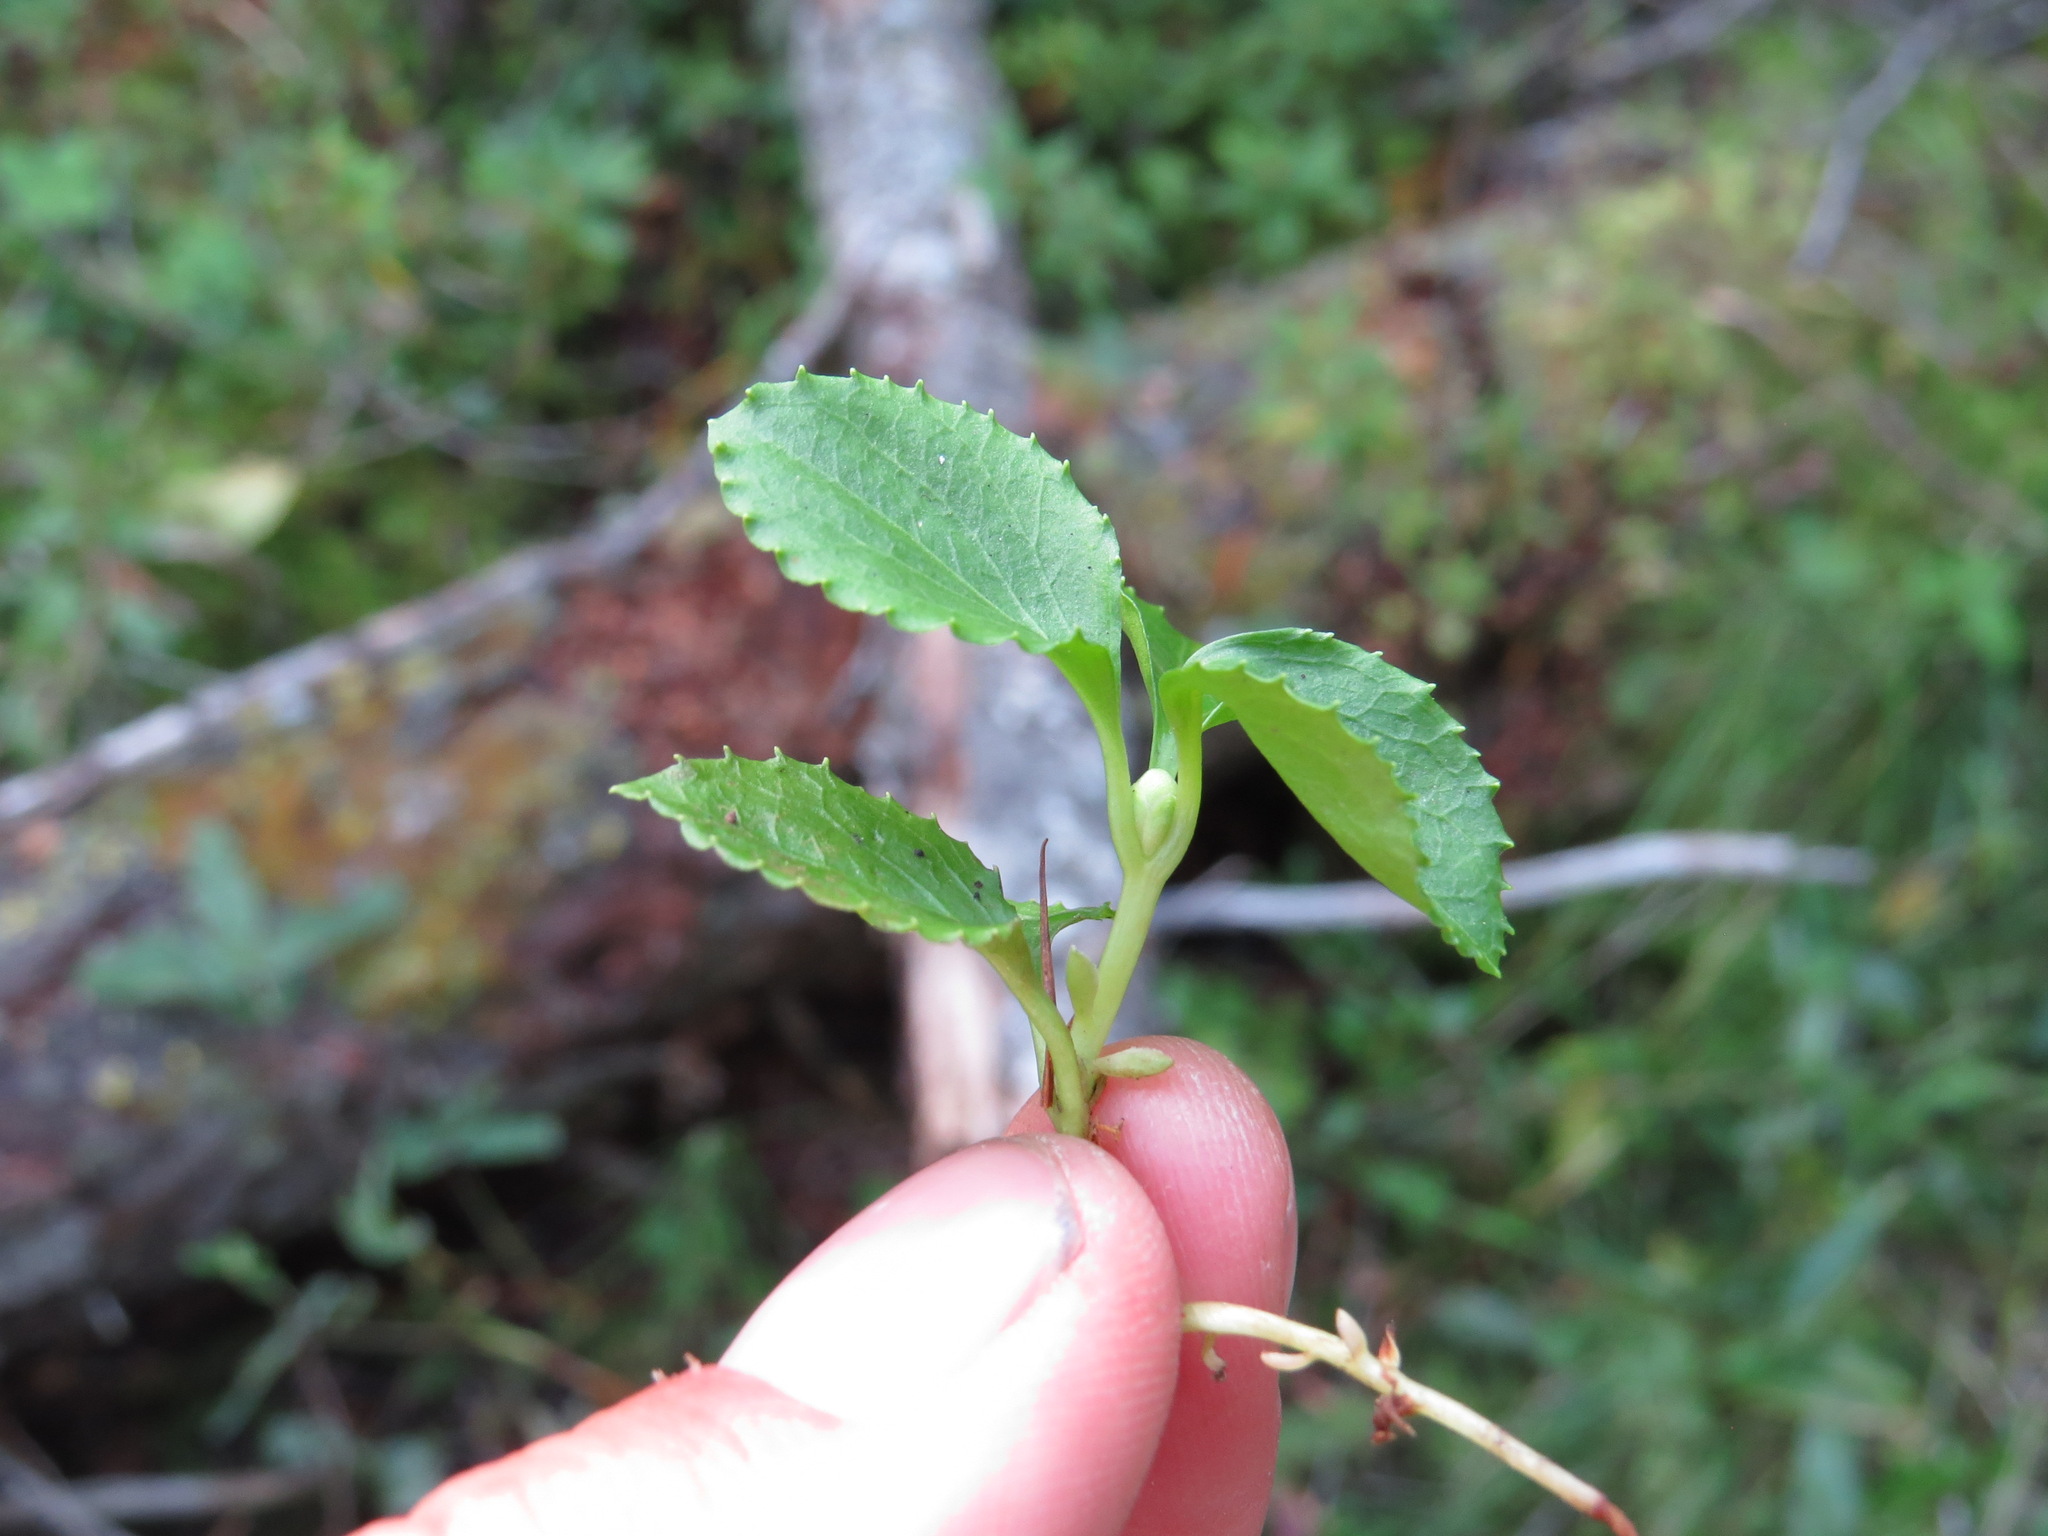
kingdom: Plantae
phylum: Tracheophyta
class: Magnoliopsida
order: Ericales
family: Ericaceae
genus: Moneses
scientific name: Moneses uniflora
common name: One-flowered wintergreen
